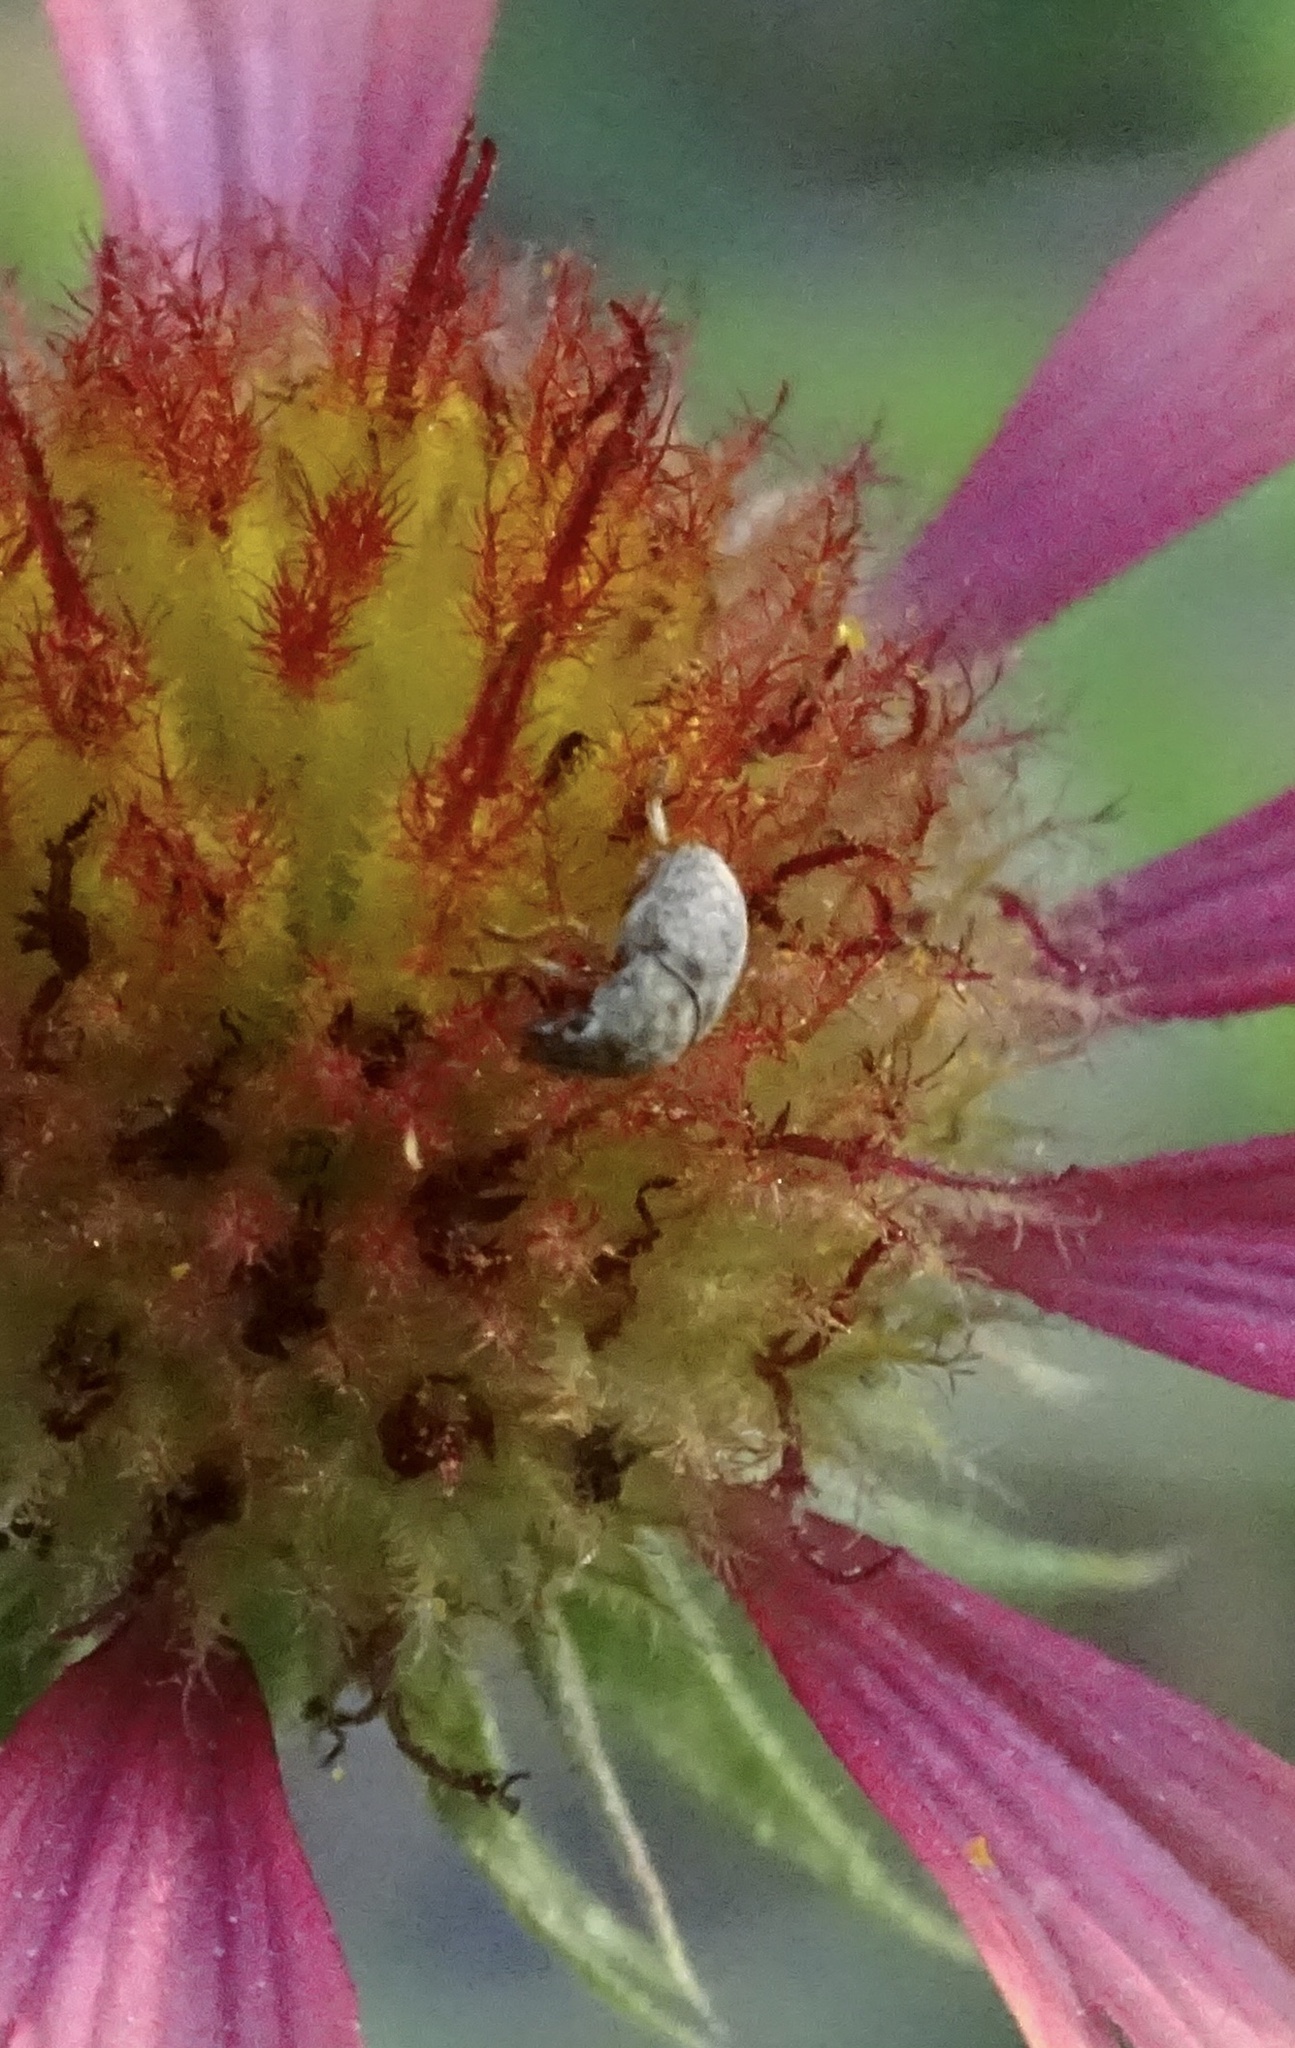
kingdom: Animalia
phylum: Arthropoda
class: Insecta
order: Coleoptera
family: Anthribidae
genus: Trigonorhinus
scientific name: Trigonorhinus limbatus
